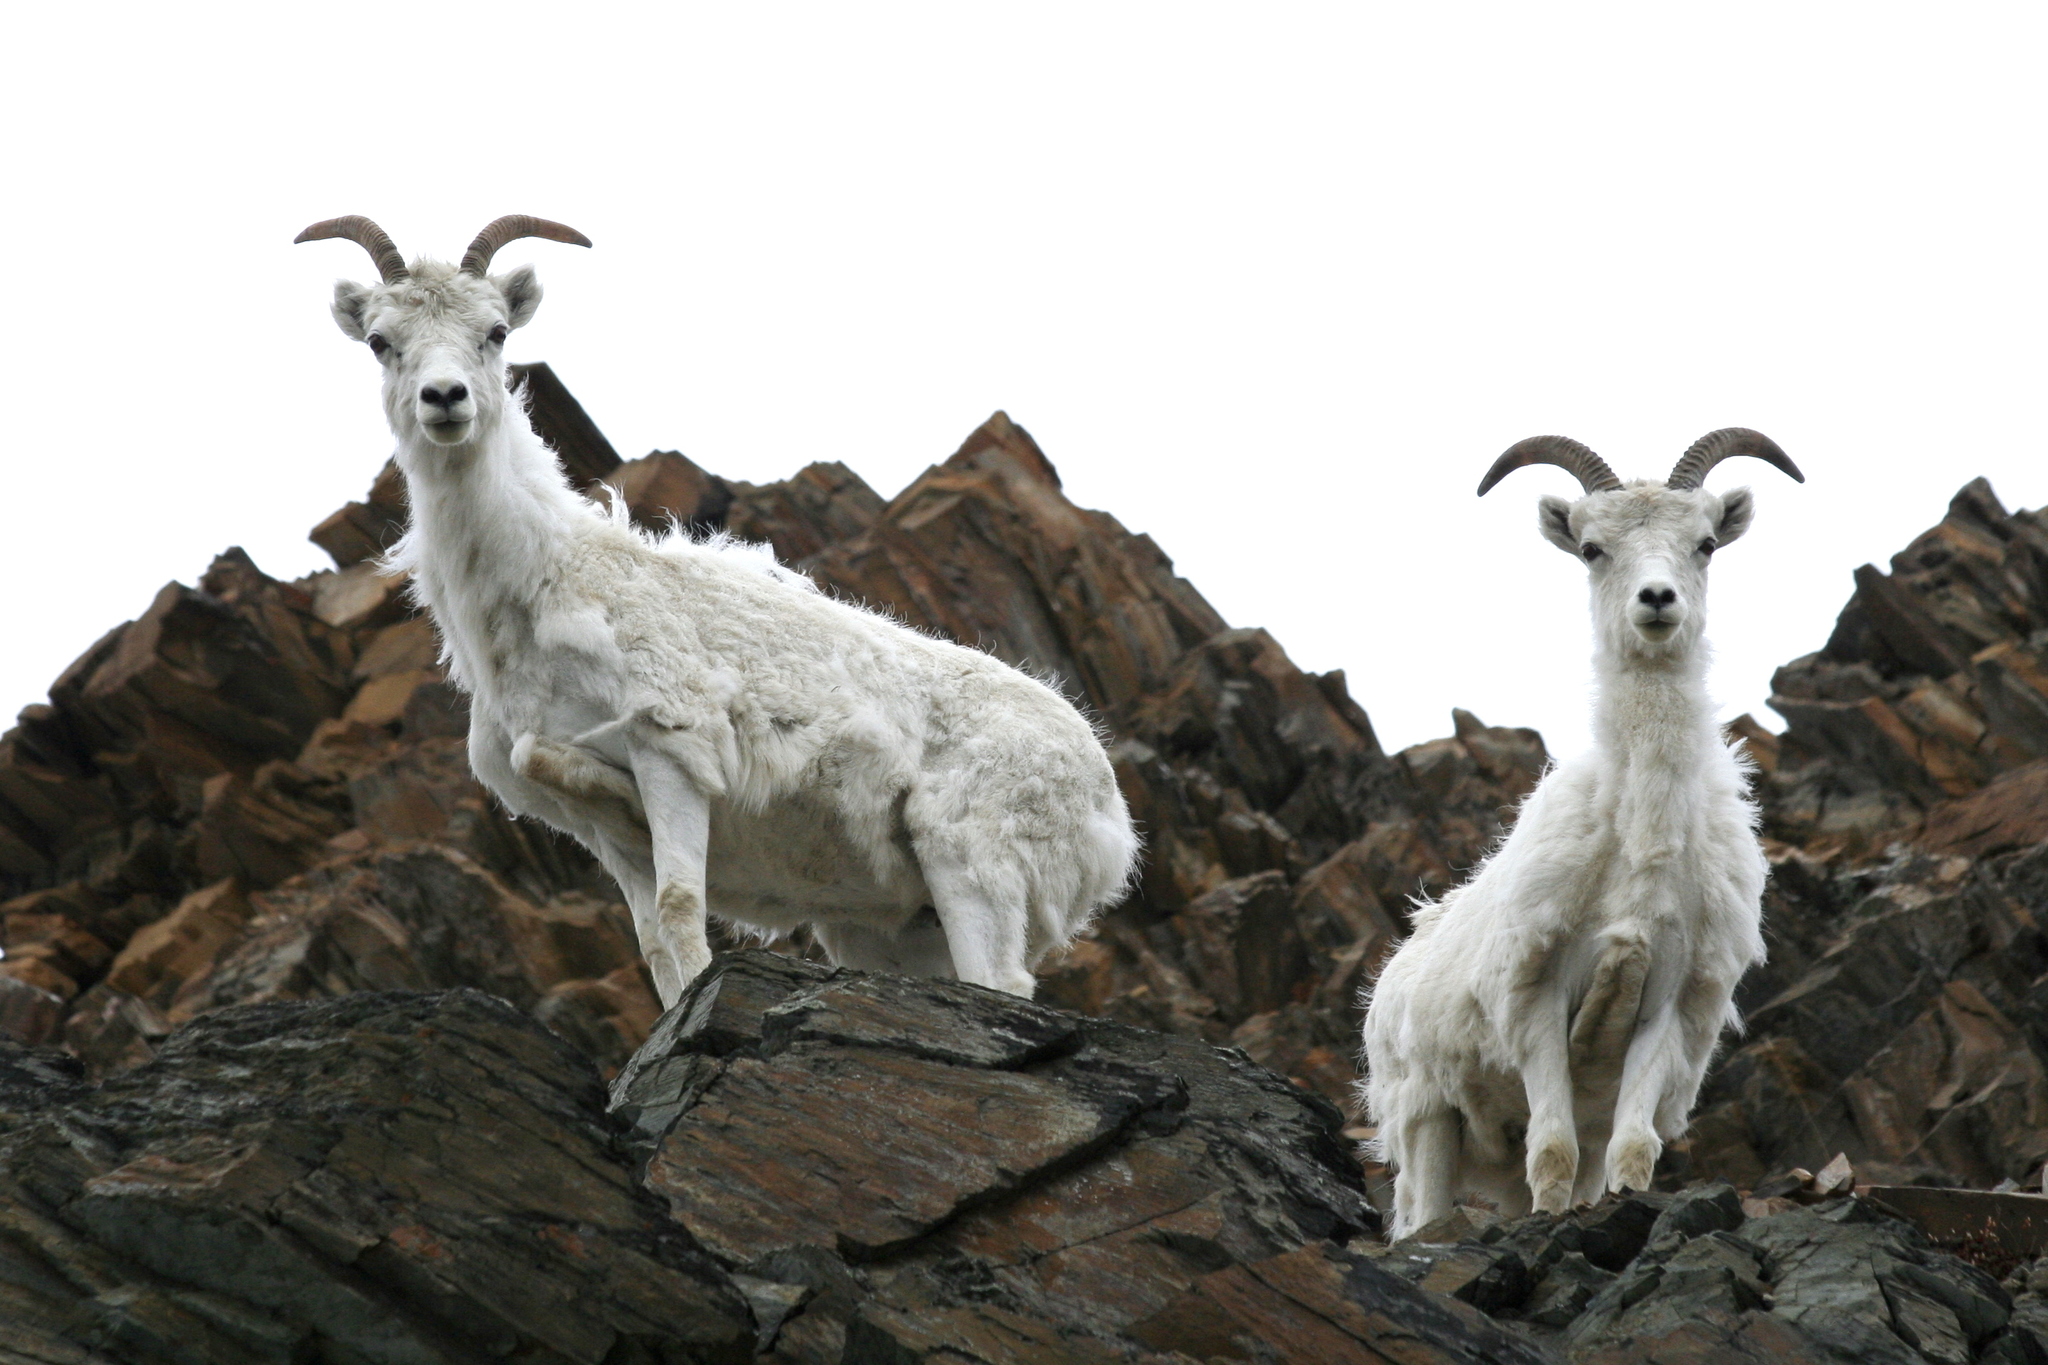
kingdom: Animalia
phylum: Chordata
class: Mammalia
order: Artiodactyla
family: Bovidae
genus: Ovis
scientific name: Ovis dalli
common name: Dall's sheep
